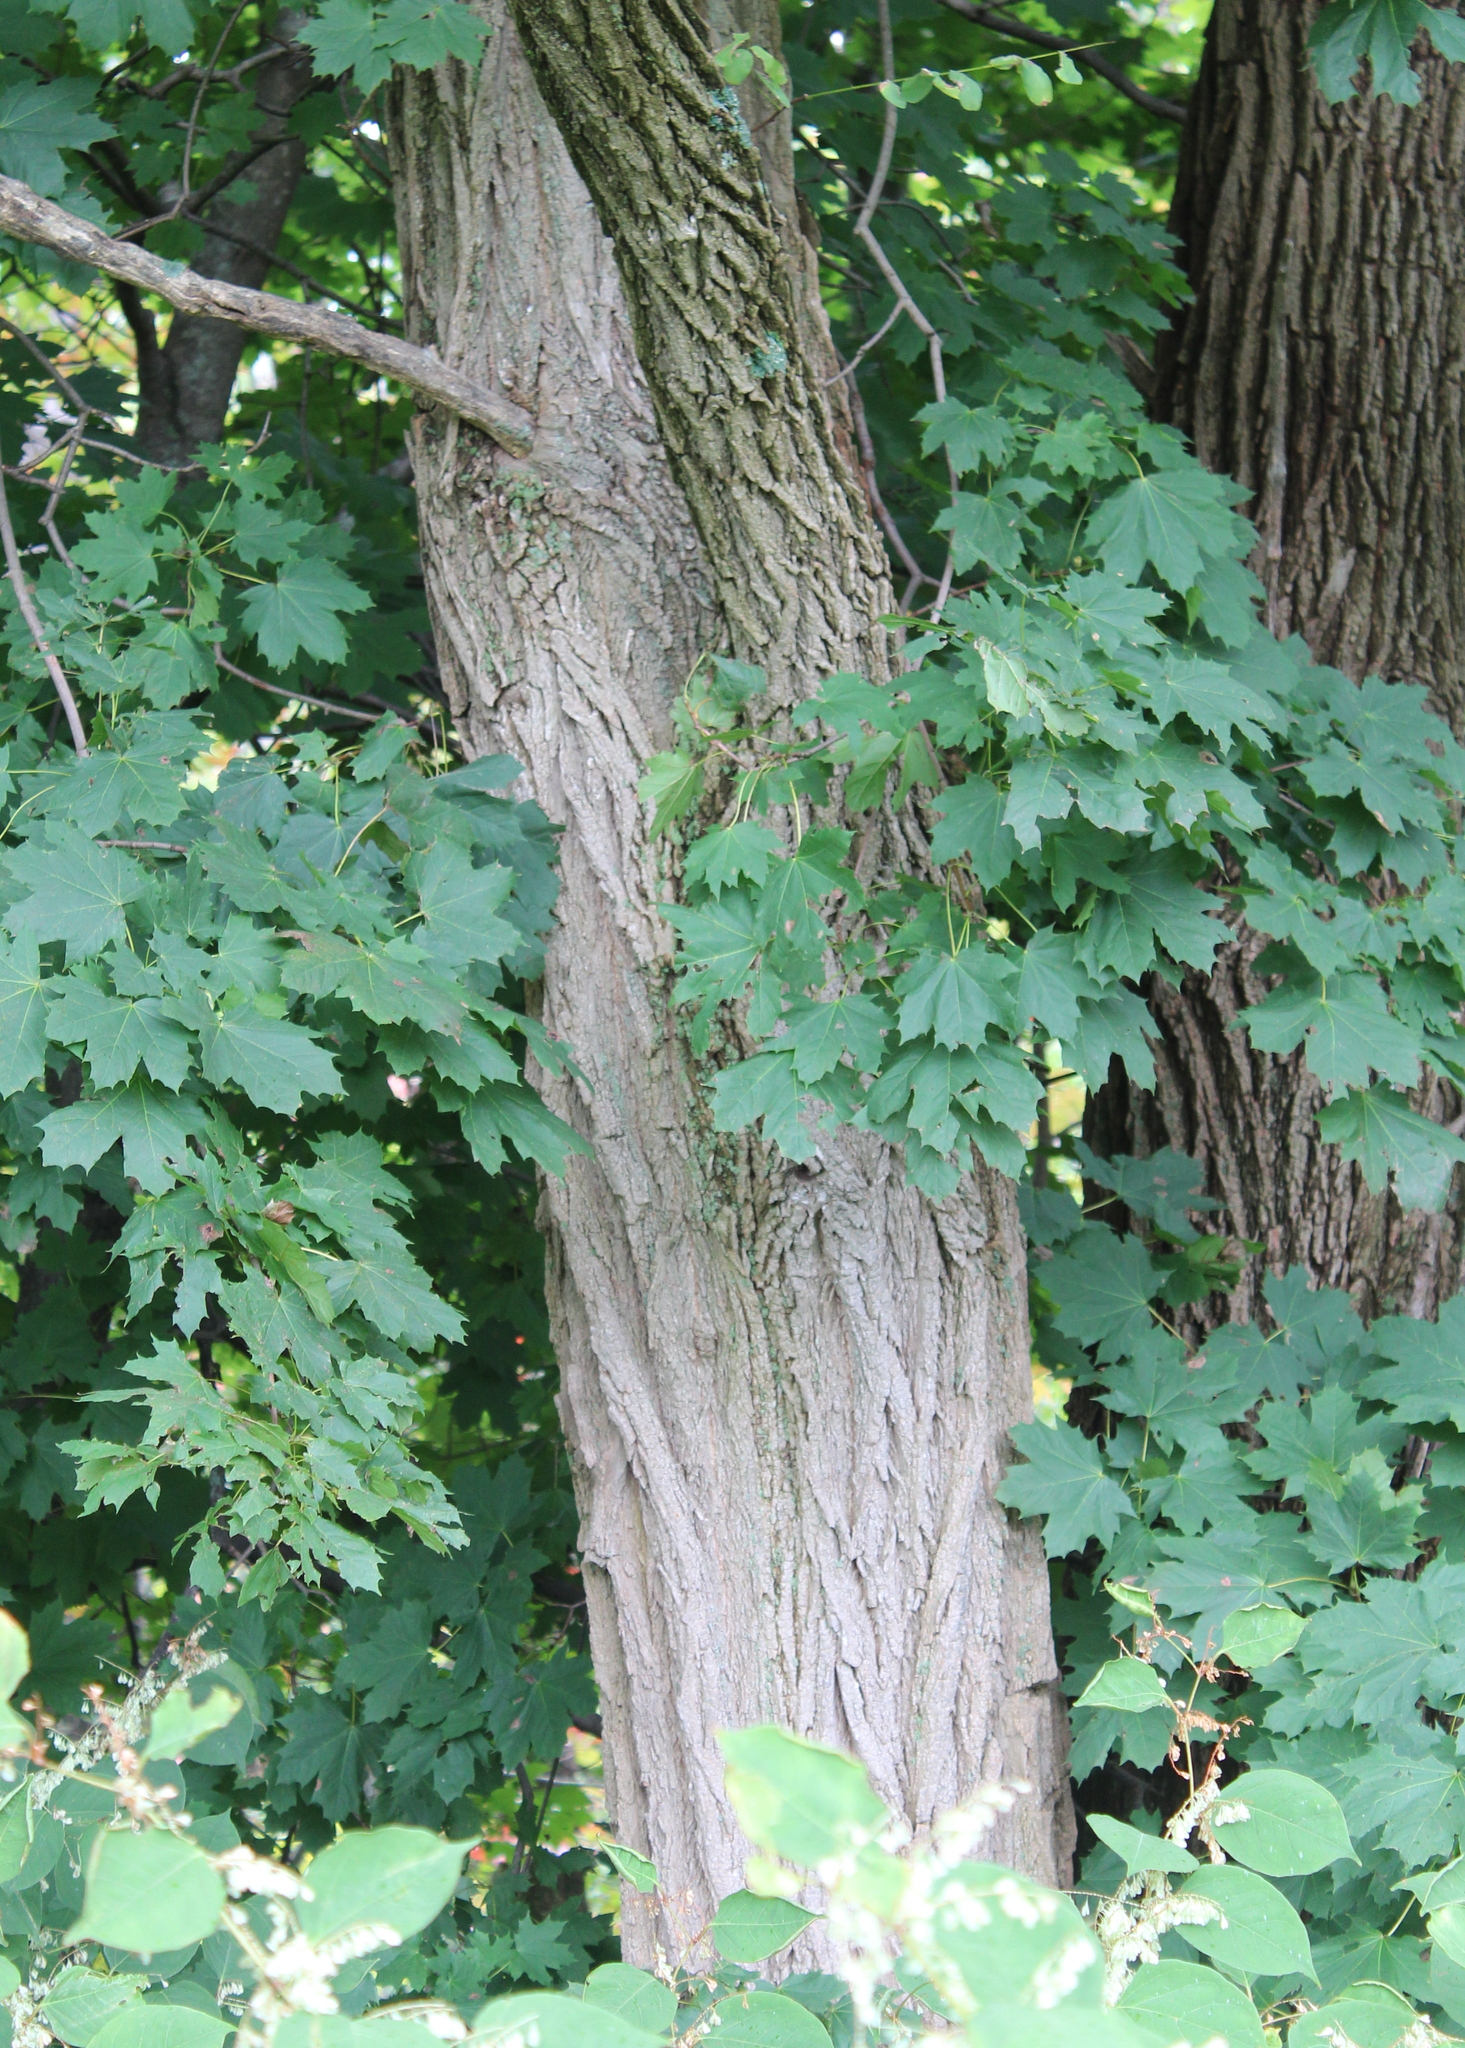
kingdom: Plantae
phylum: Tracheophyta
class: Magnoliopsida
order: Fabales
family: Fabaceae
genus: Robinia
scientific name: Robinia pseudoacacia
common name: Black locust
